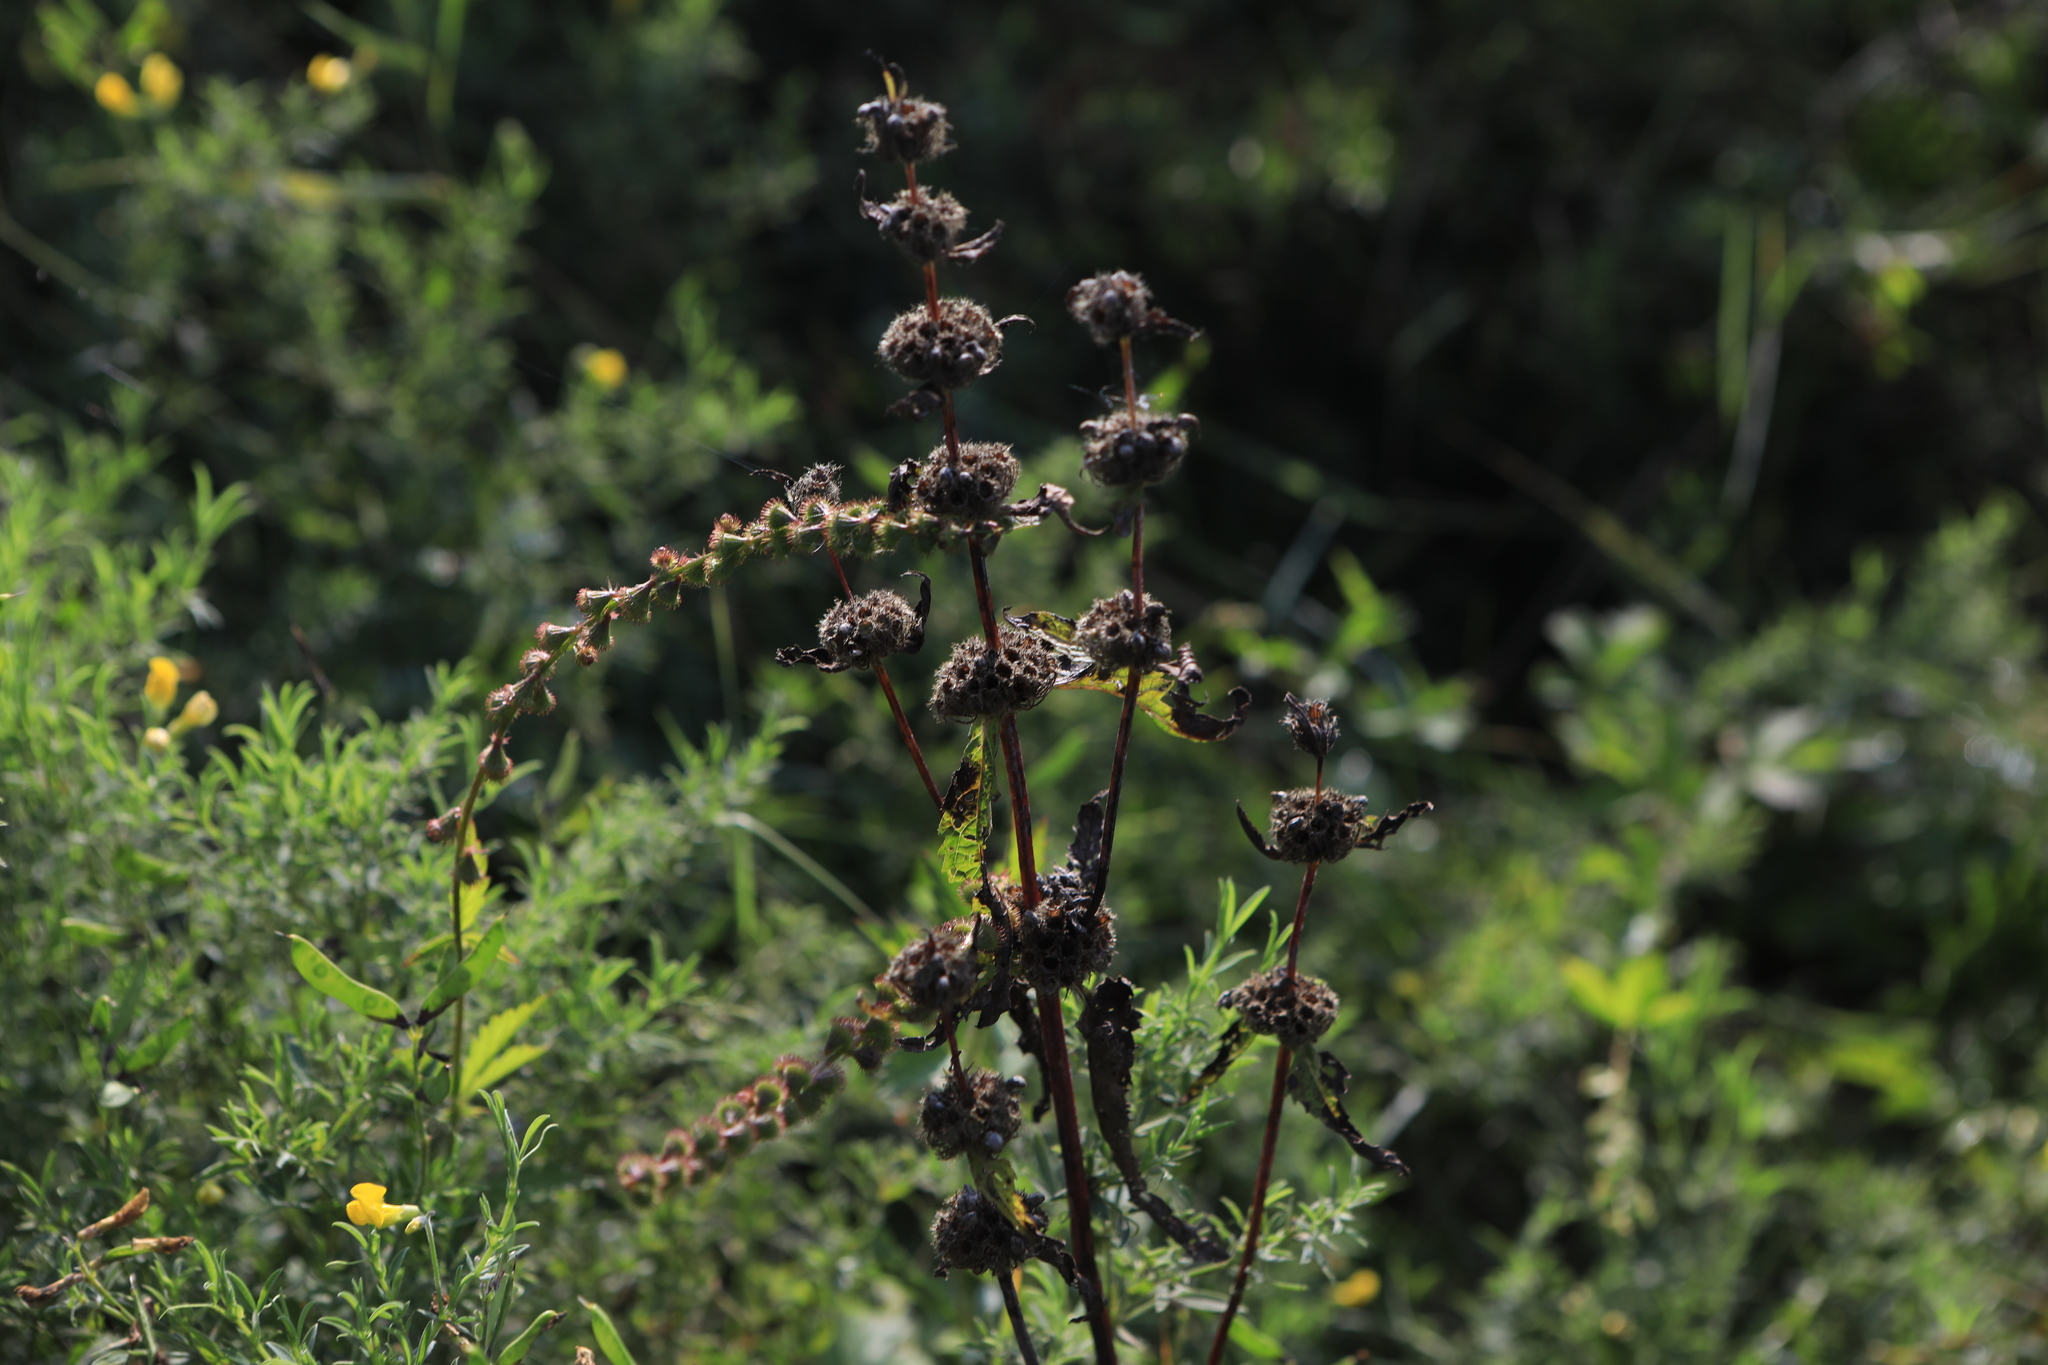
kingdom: Plantae
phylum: Tracheophyta
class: Magnoliopsida
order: Lamiales
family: Lamiaceae
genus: Phlomoides
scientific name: Phlomoides tuberosa
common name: Tuberous jerusalem sage
